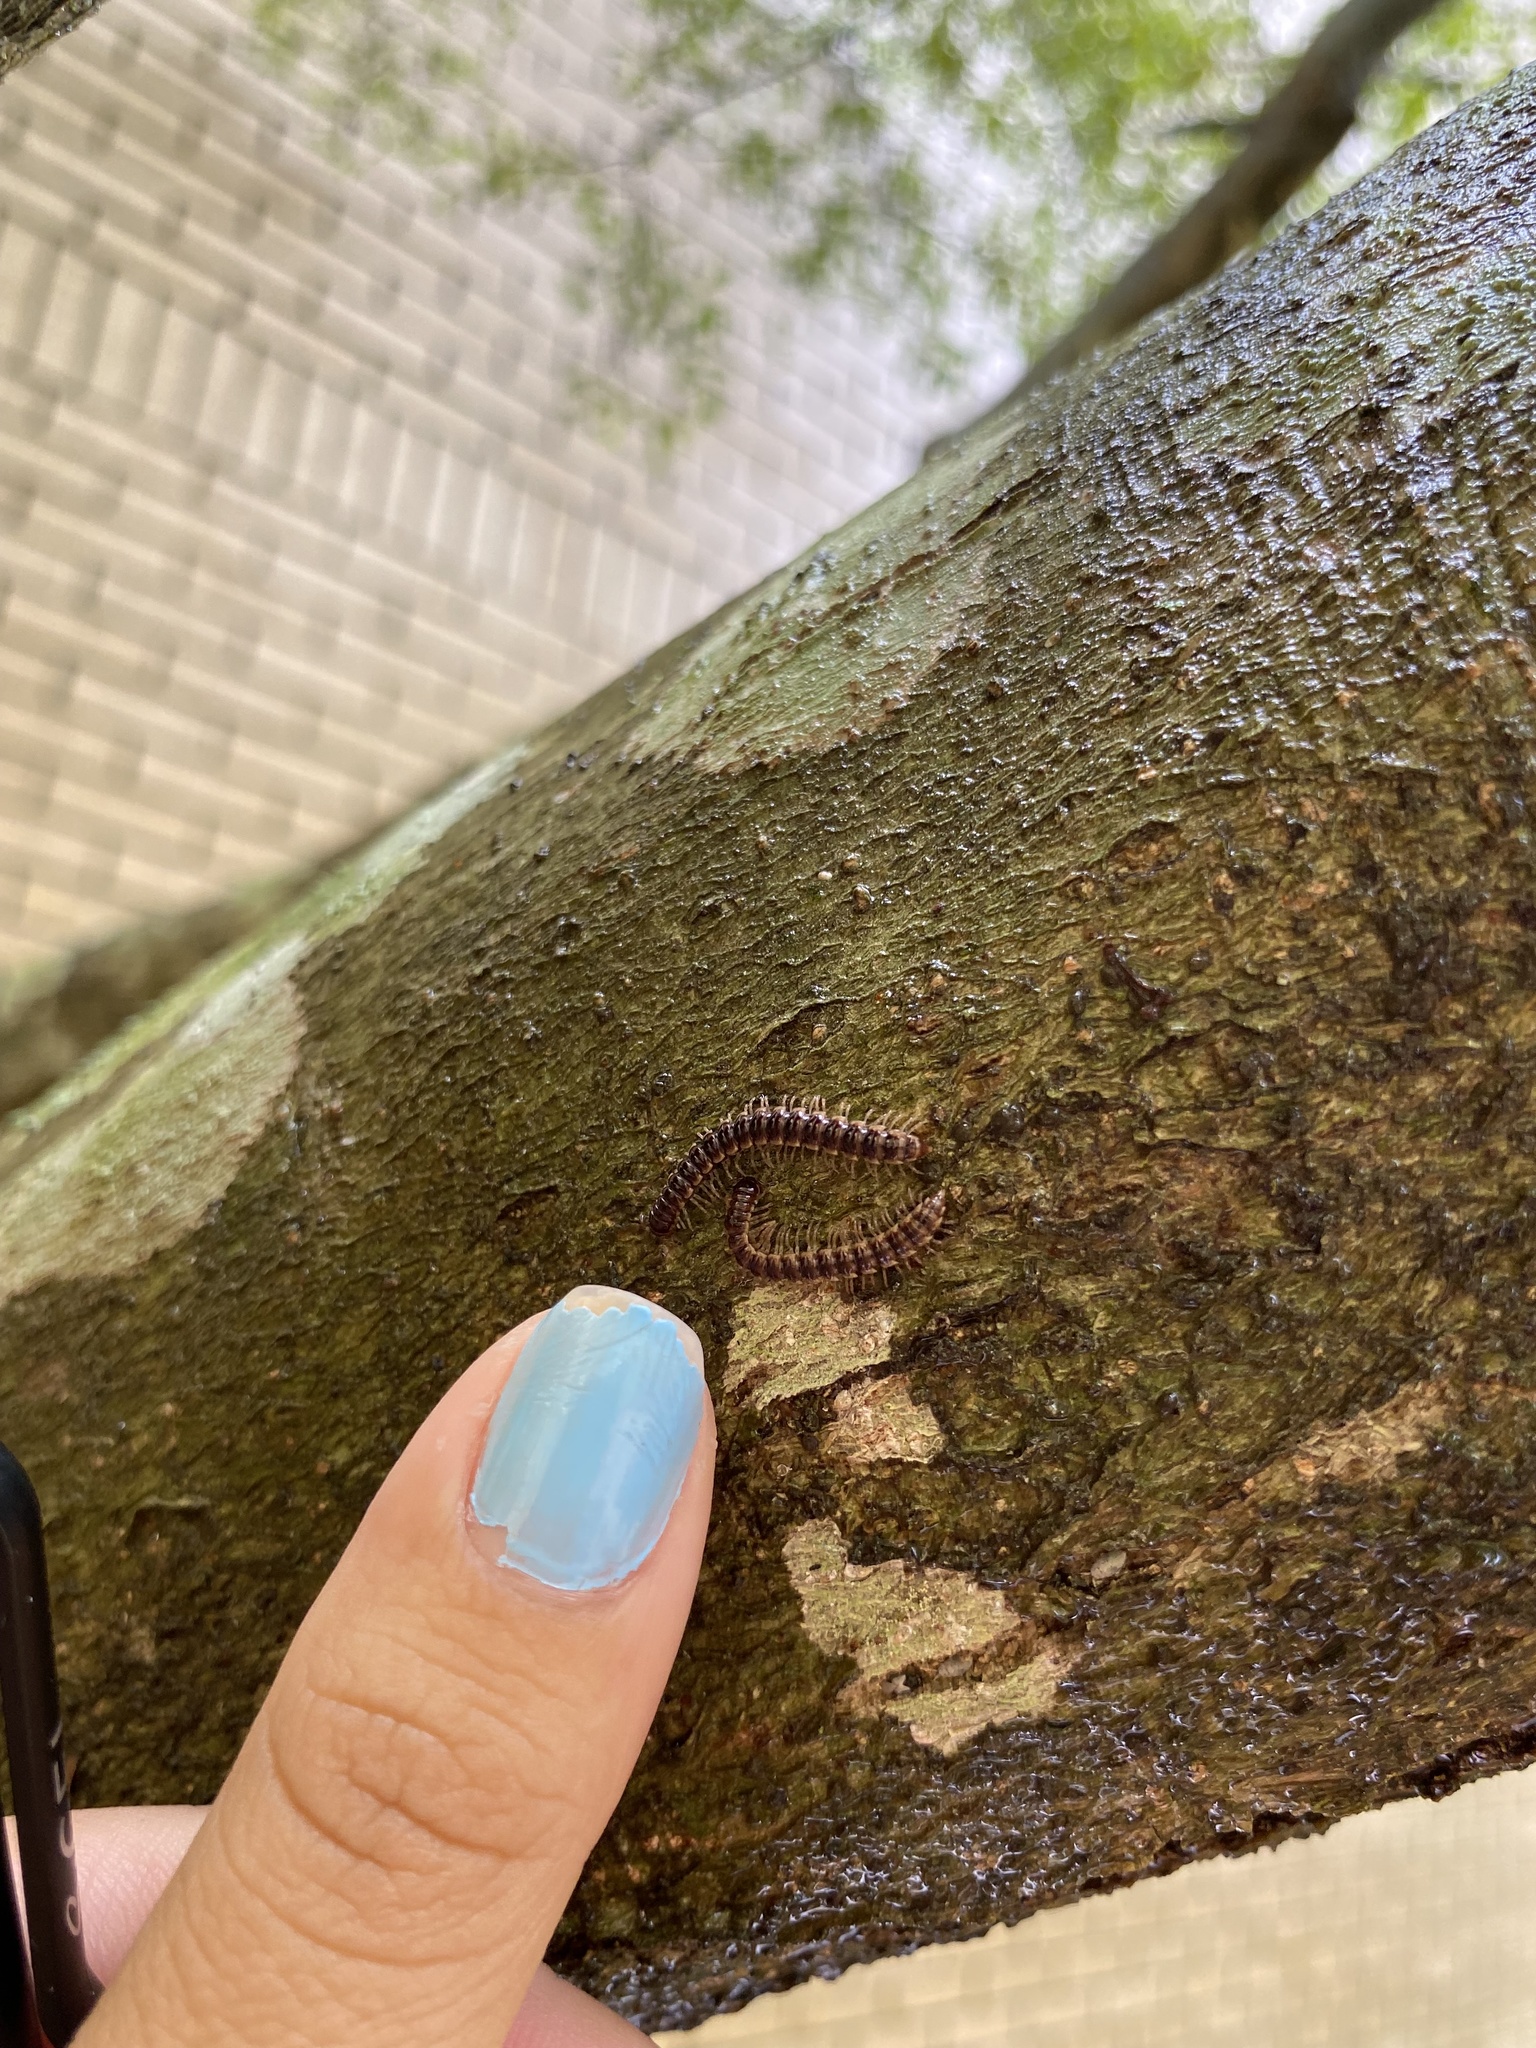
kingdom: Animalia
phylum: Arthropoda
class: Diplopoda
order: Polydesmida
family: Paradoxosomatidae
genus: Oxidus
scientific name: Oxidus gracilis
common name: Greenhouse millipede
